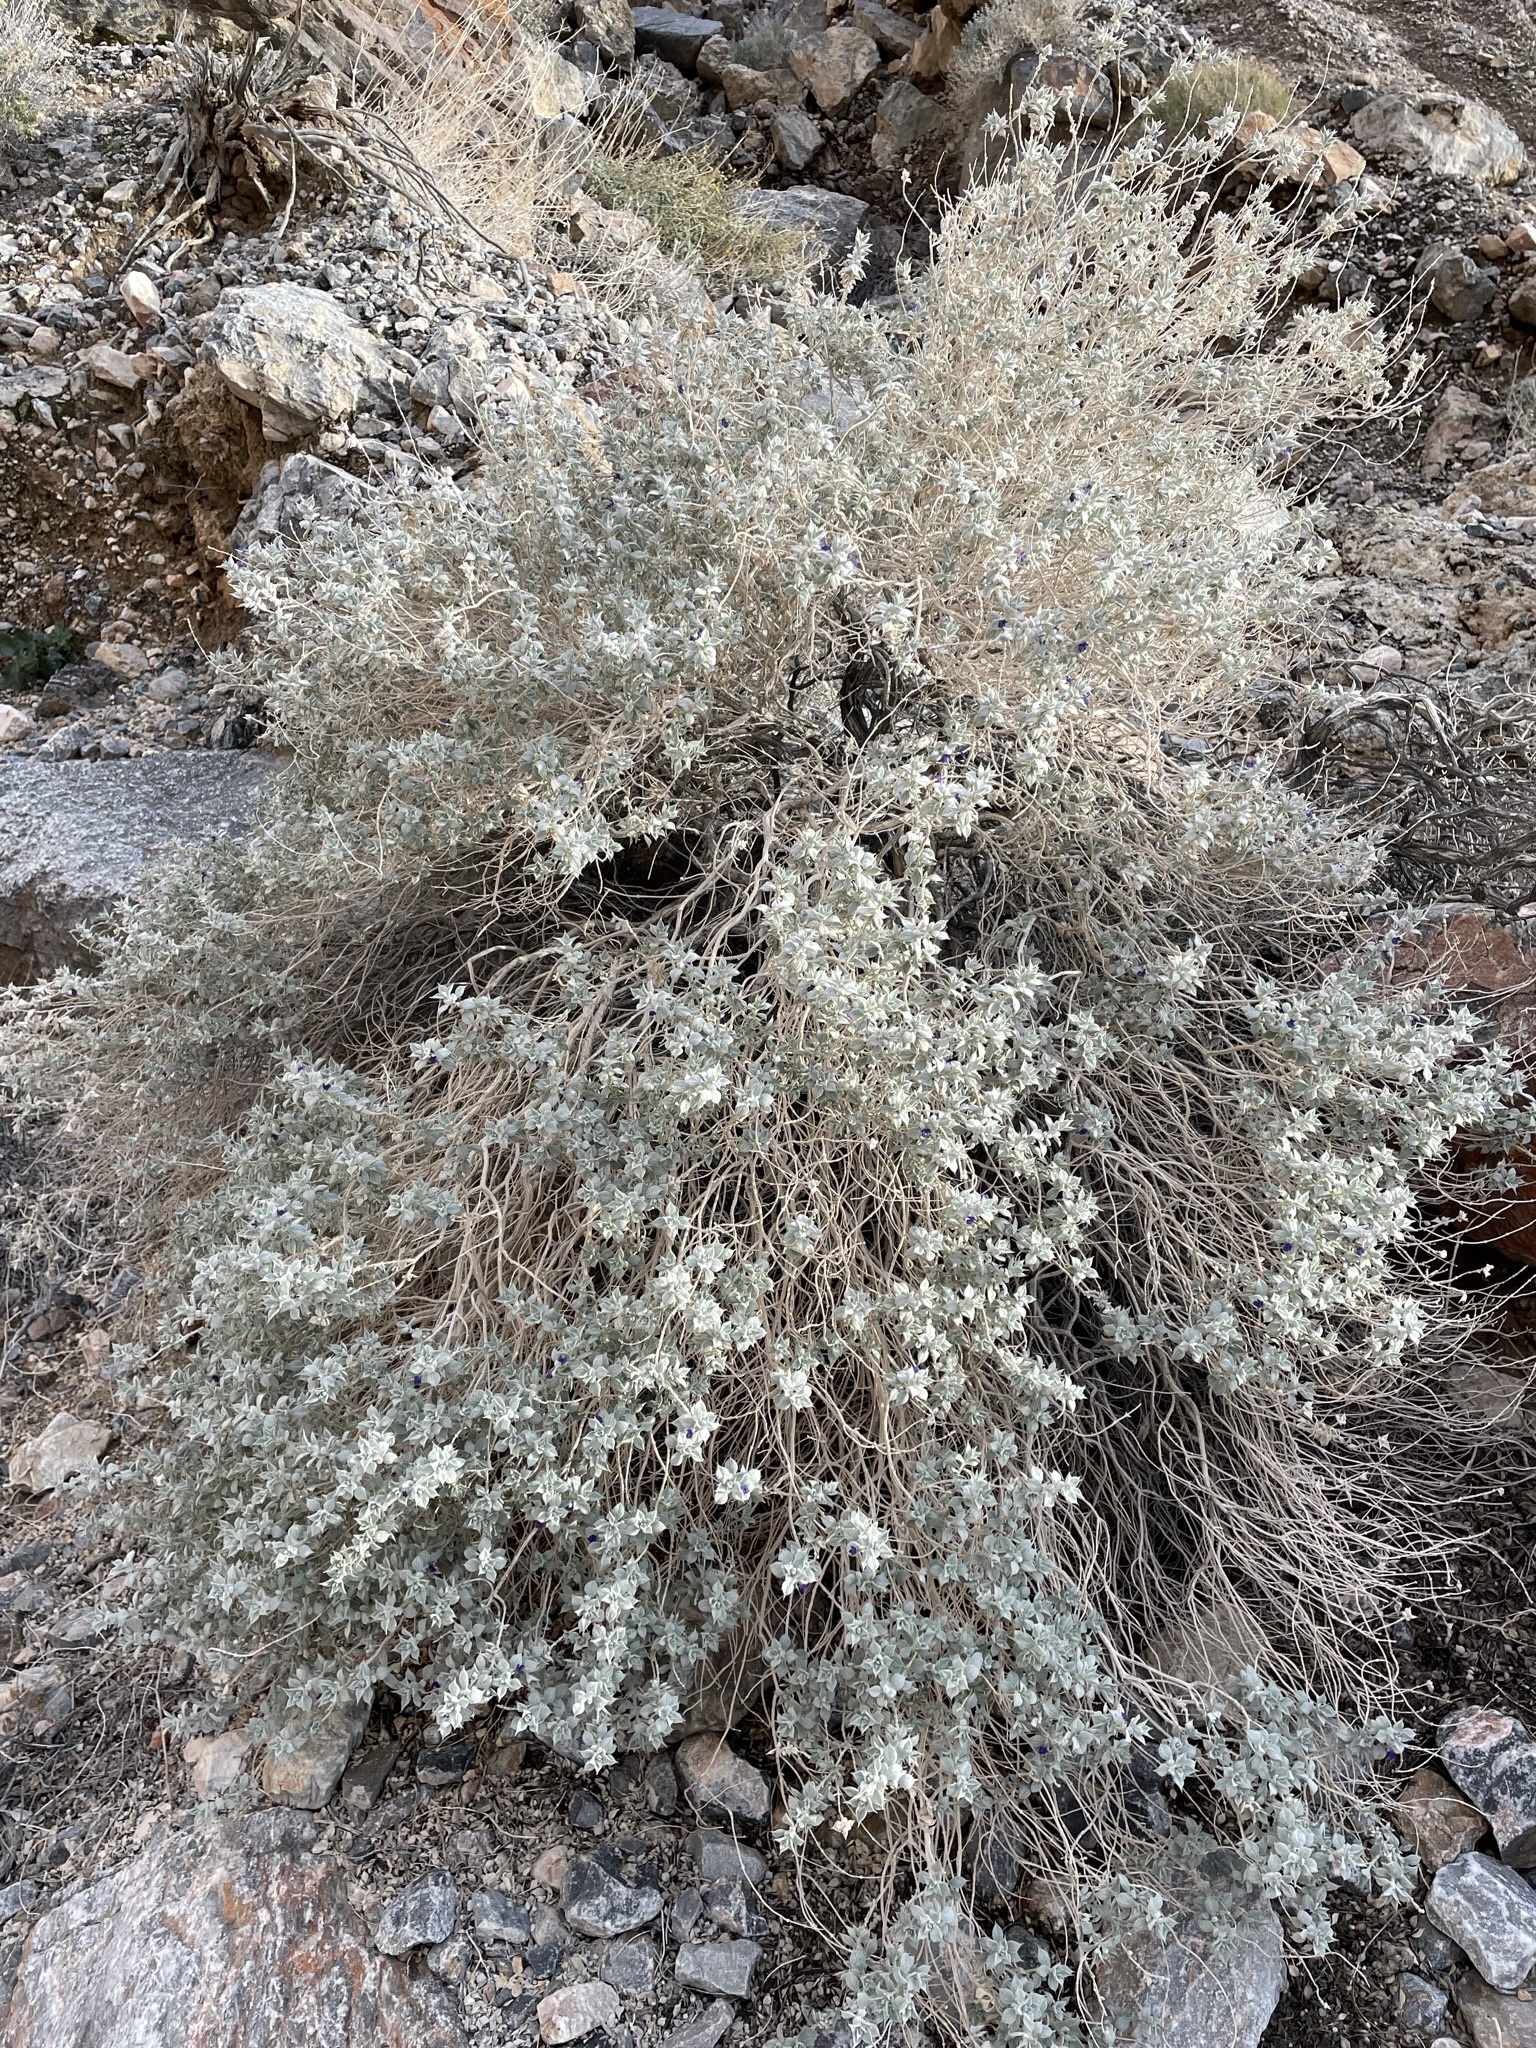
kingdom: Plantae
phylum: Tracheophyta
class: Magnoliopsida
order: Lamiales
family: Lamiaceae
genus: Salvia
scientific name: Salvia funerea
